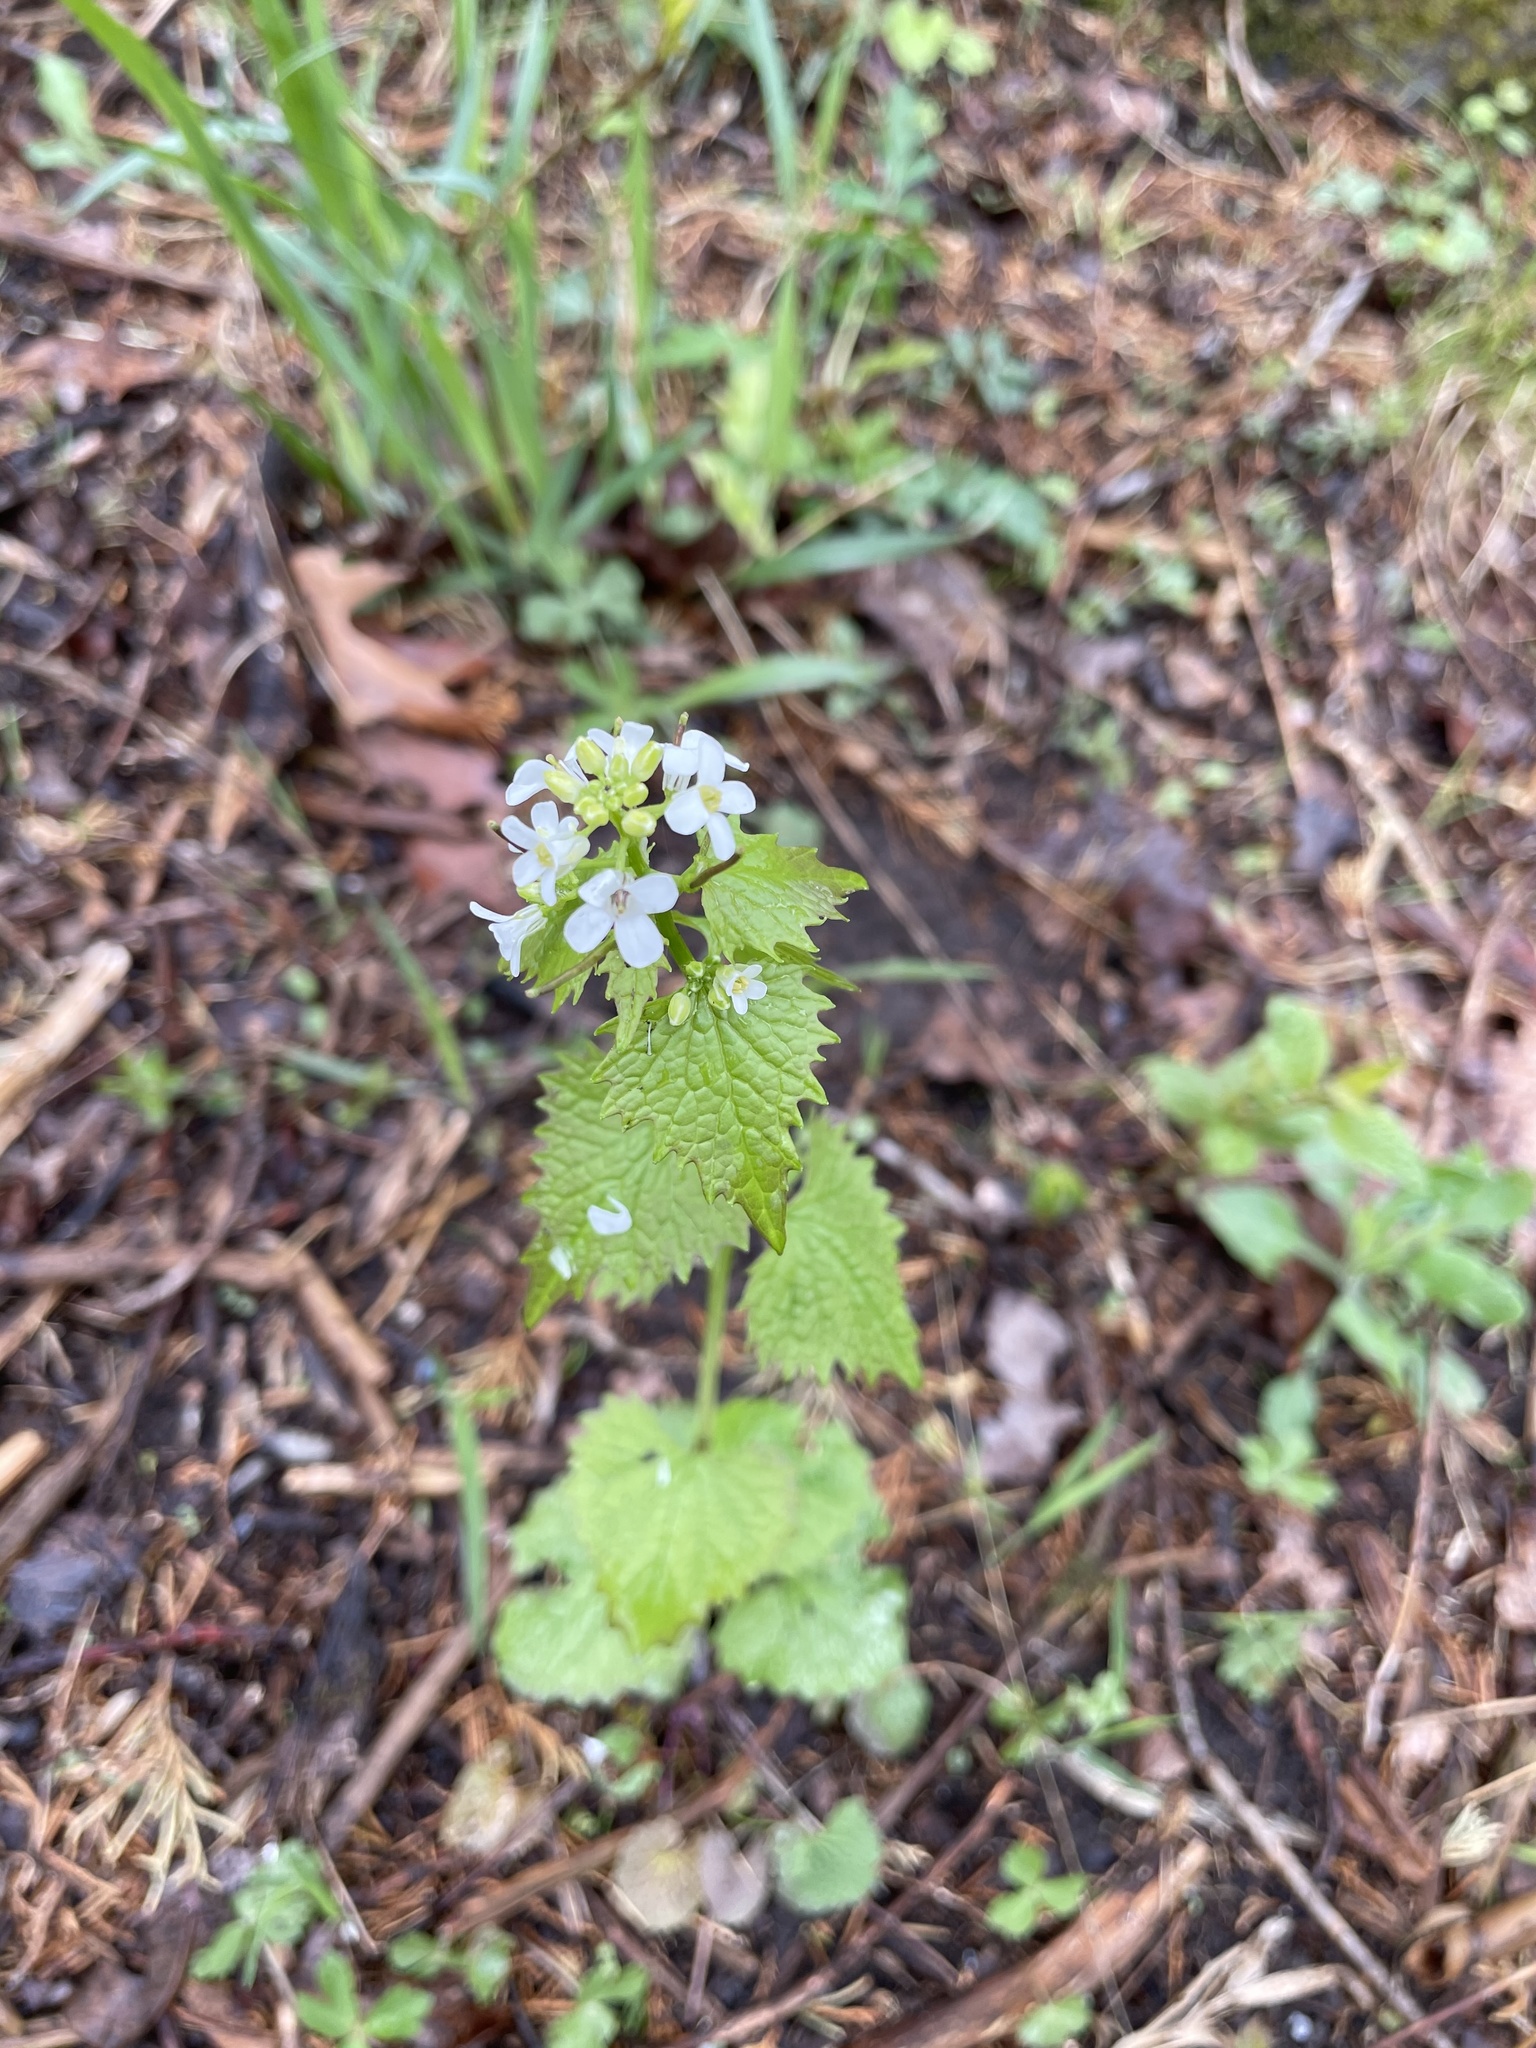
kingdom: Plantae
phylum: Tracheophyta
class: Magnoliopsida
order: Brassicales
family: Brassicaceae
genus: Alliaria
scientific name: Alliaria petiolata
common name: Garlic mustard
